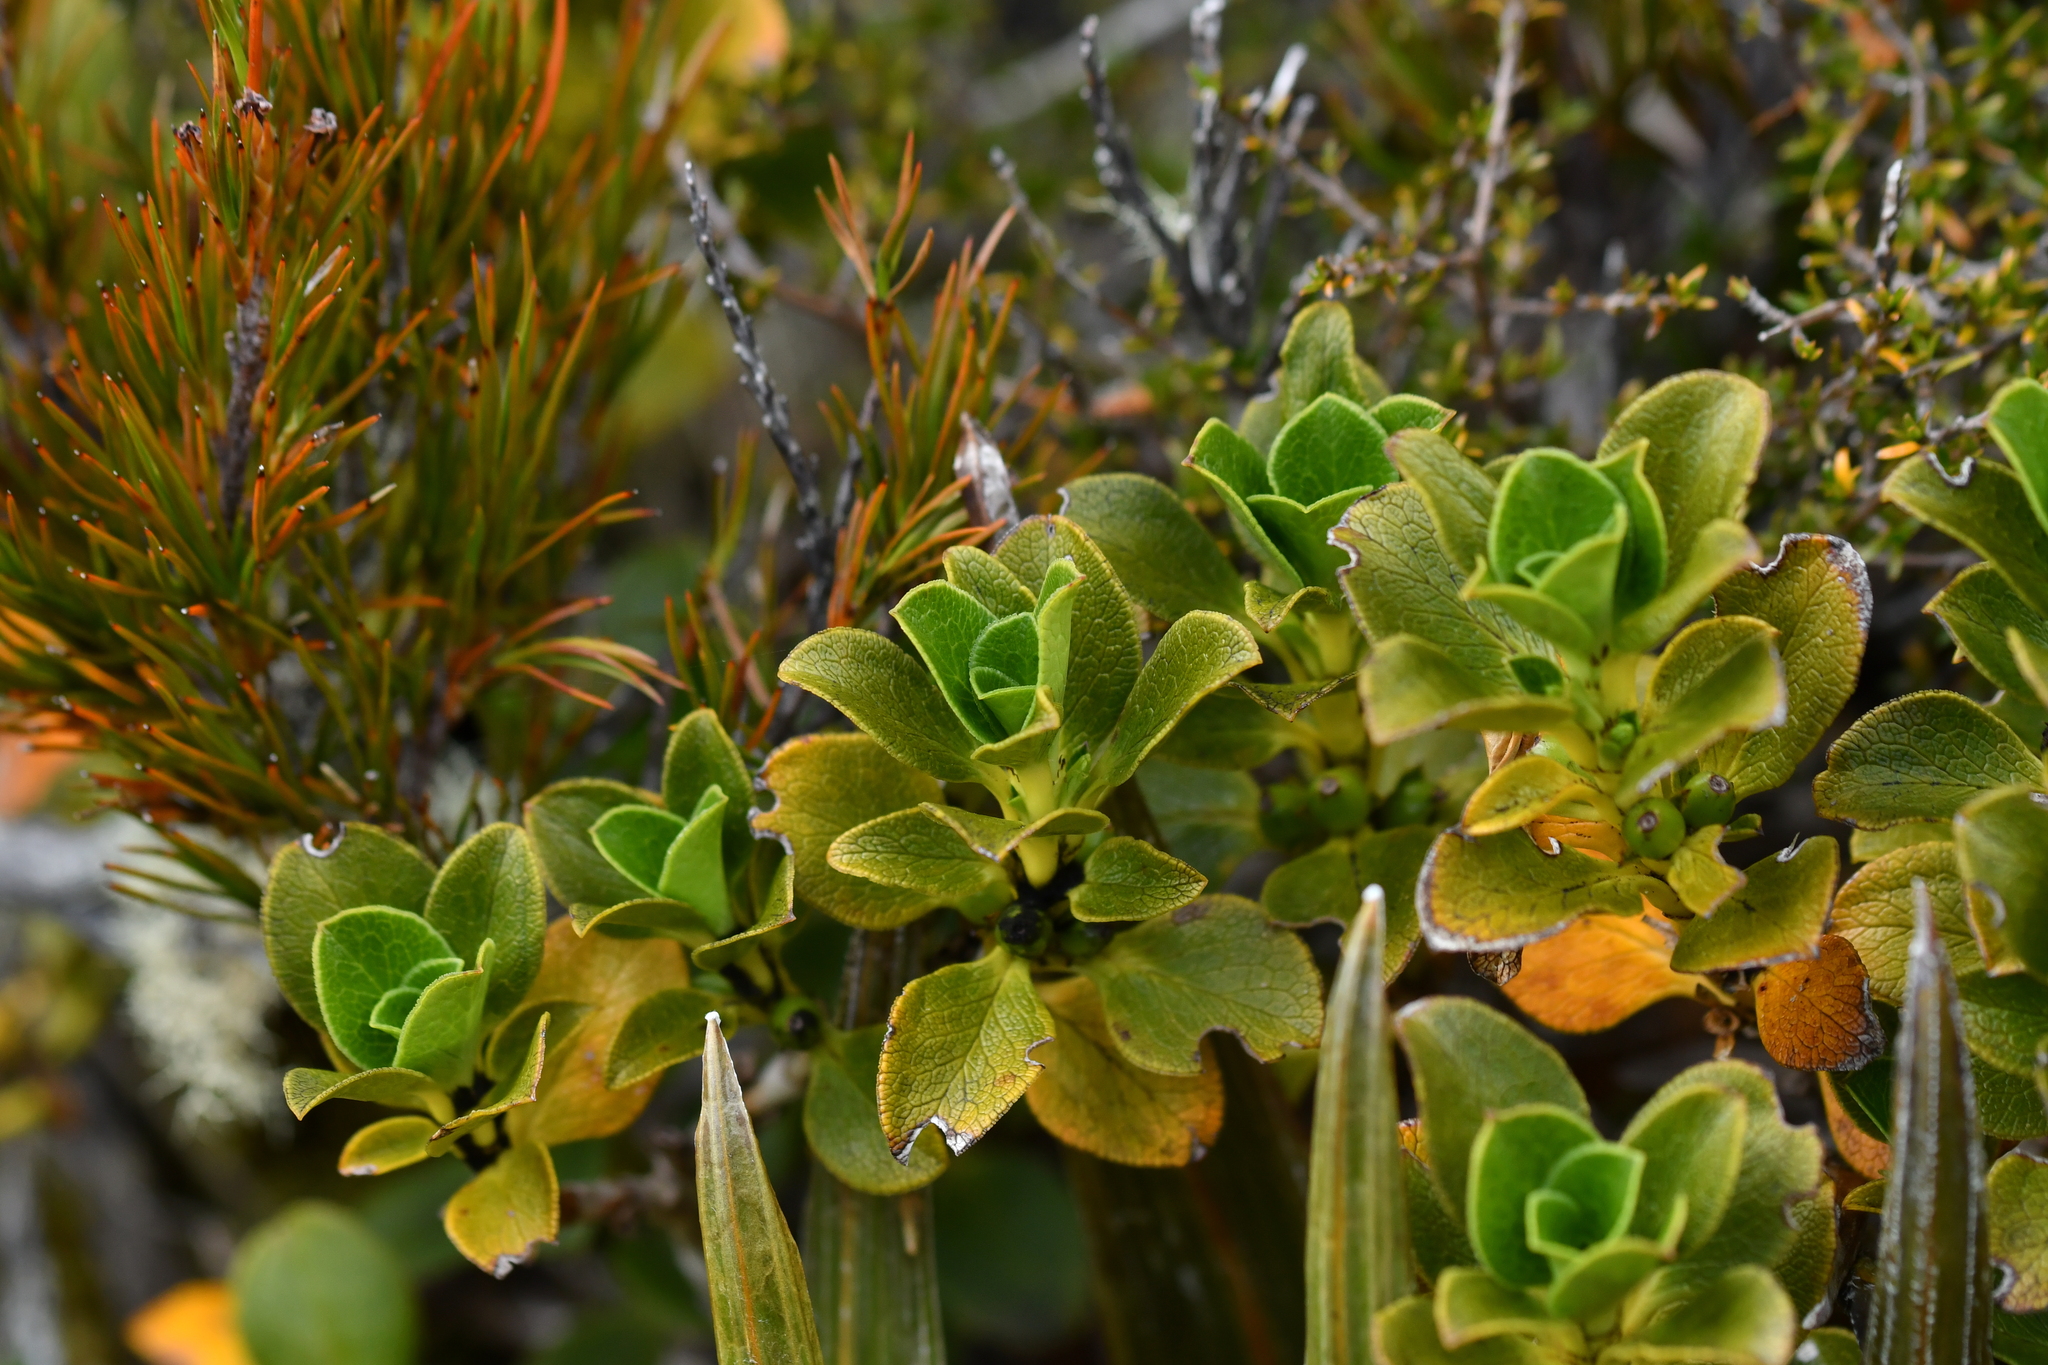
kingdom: Plantae
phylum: Tracheophyta
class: Magnoliopsida
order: Gentianales
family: Rubiaceae
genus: Coprosma
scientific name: Coprosma serrulata
